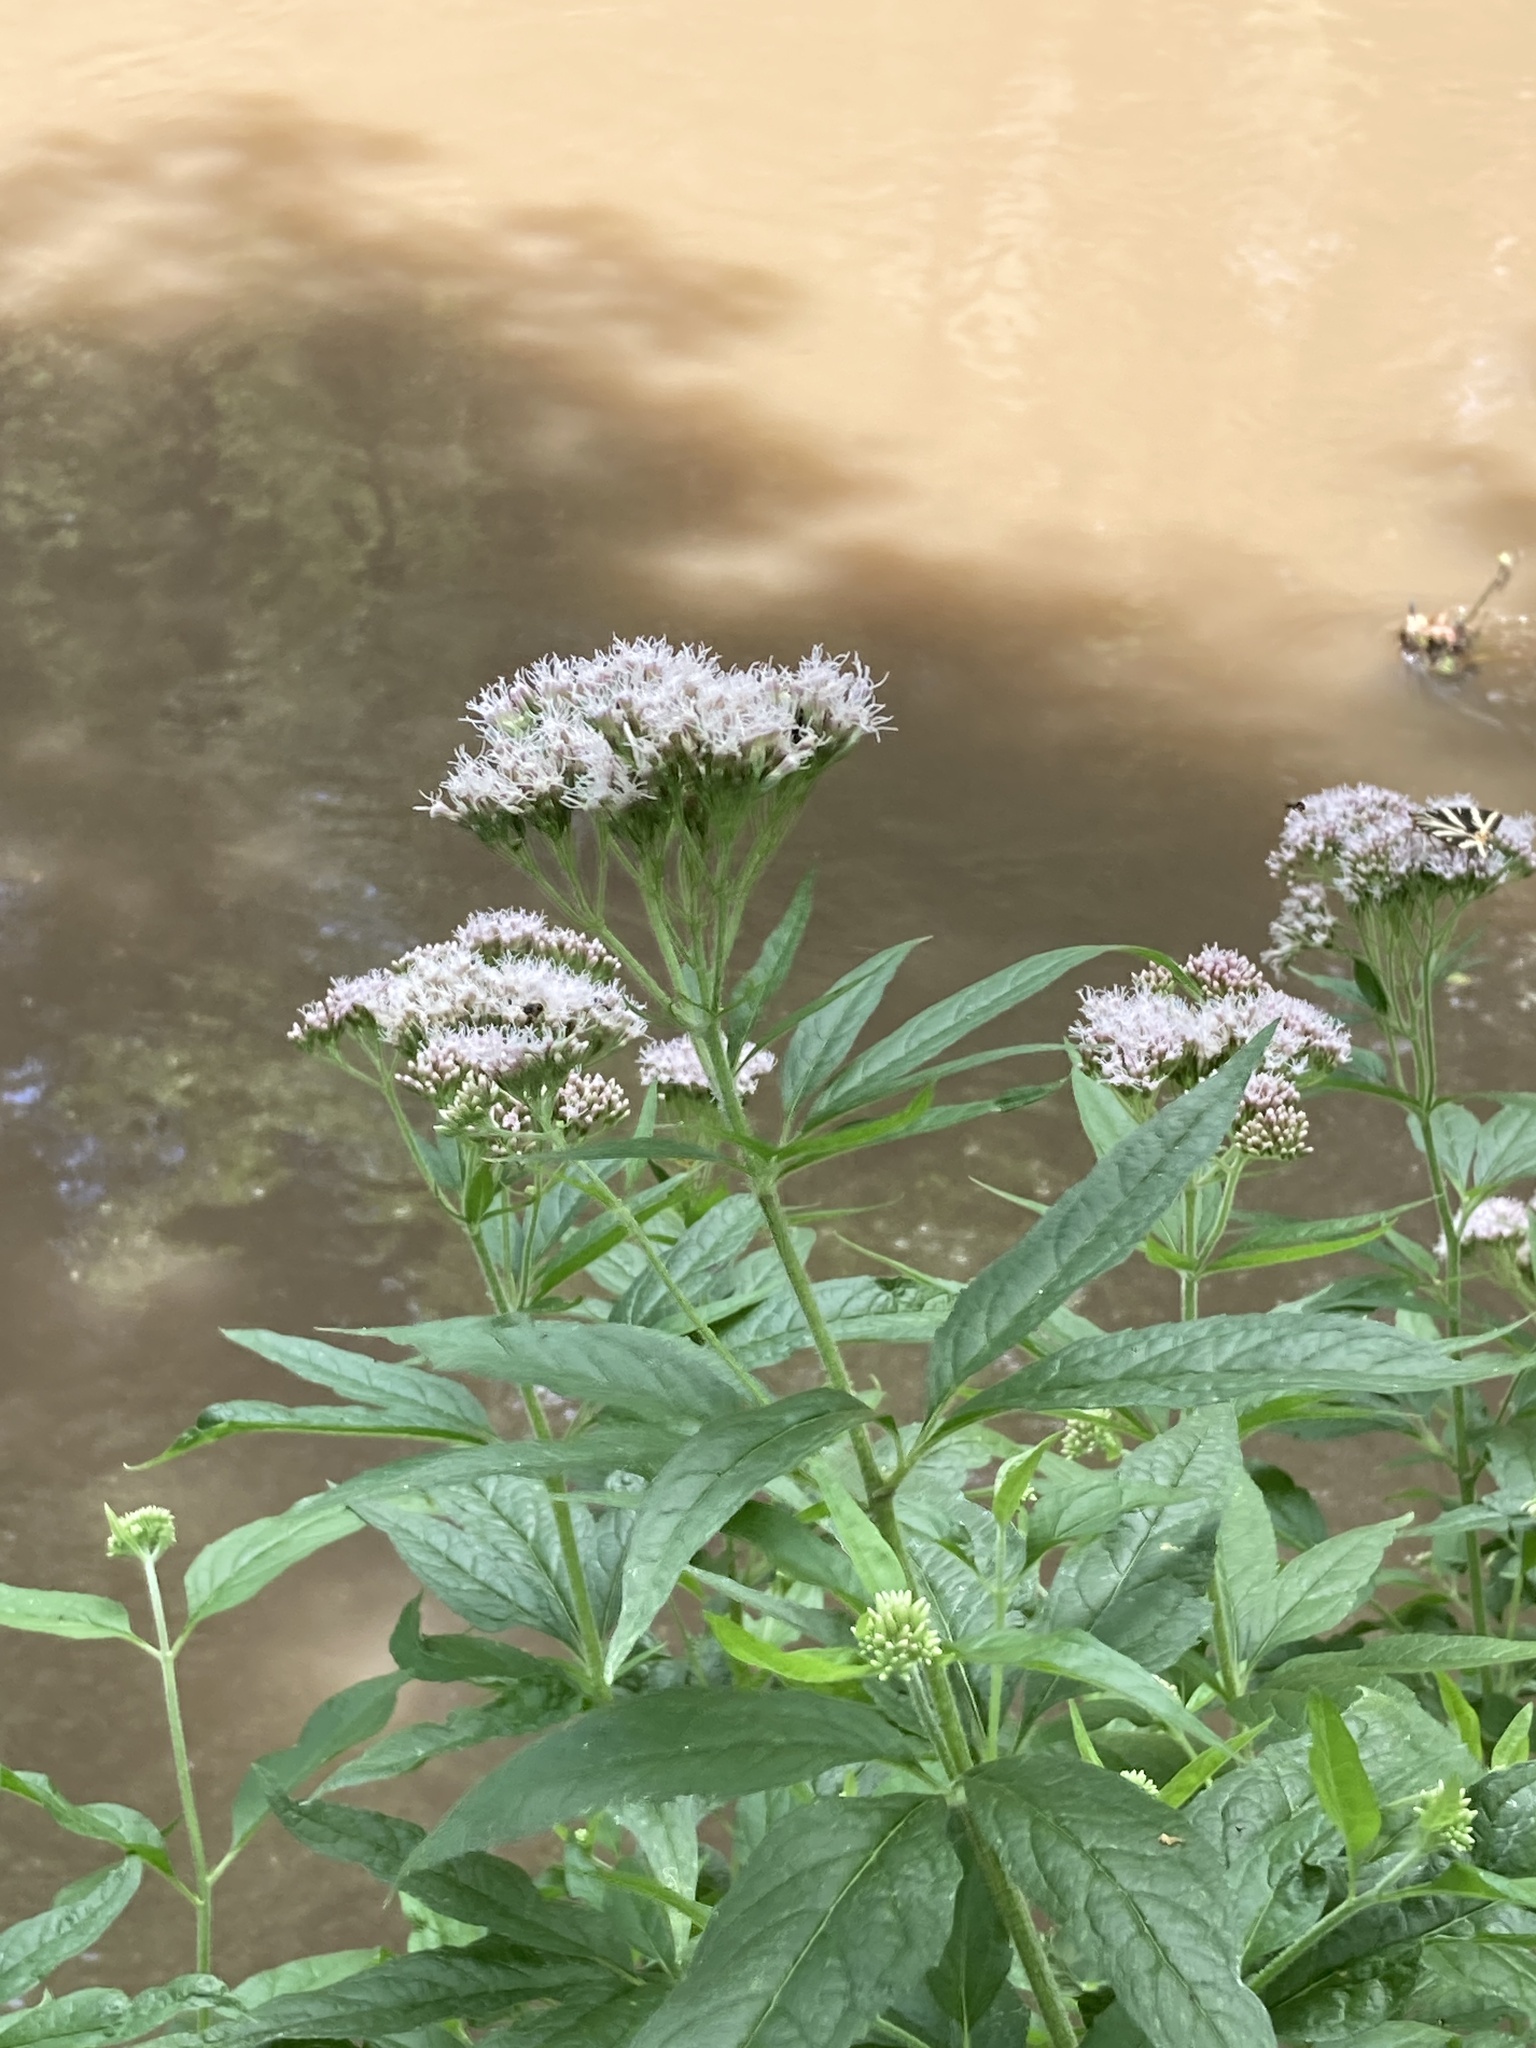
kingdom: Plantae
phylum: Tracheophyta
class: Magnoliopsida
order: Asterales
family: Asteraceae
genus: Eupatorium
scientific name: Eupatorium cannabinum
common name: Hemp-agrimony
